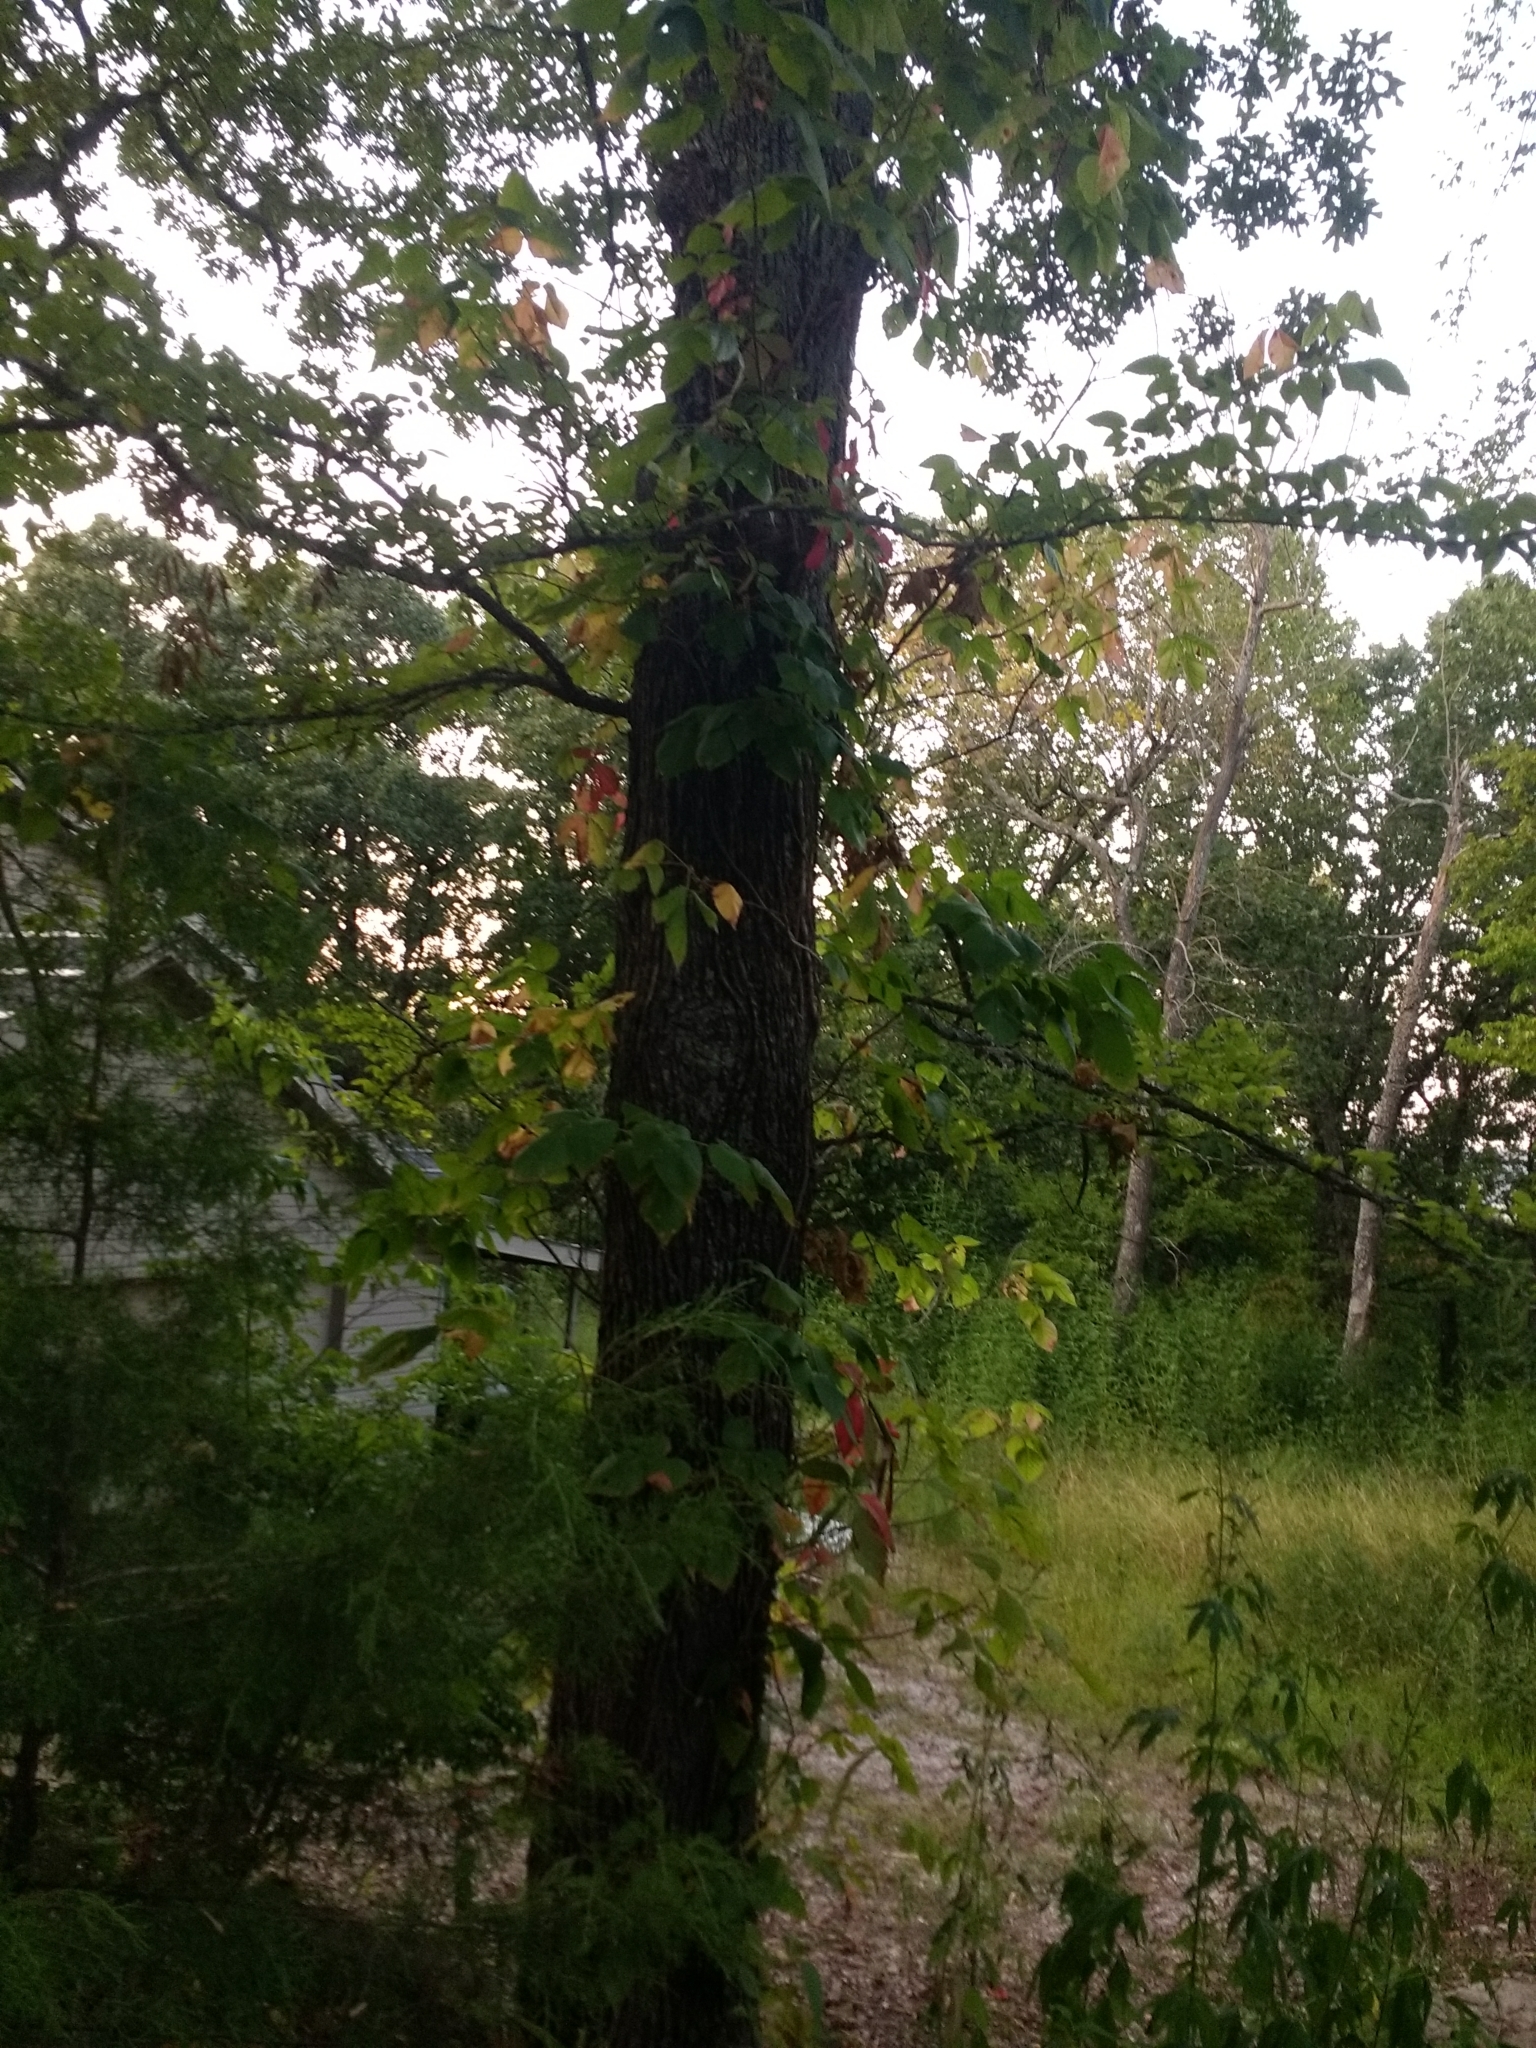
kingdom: Plantae
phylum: Tracheophyta
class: Magnoliopsida
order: Sapindales
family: Anacardiaceae
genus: Toxicodendron
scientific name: Toxicodendron radicans
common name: Poison ivy
